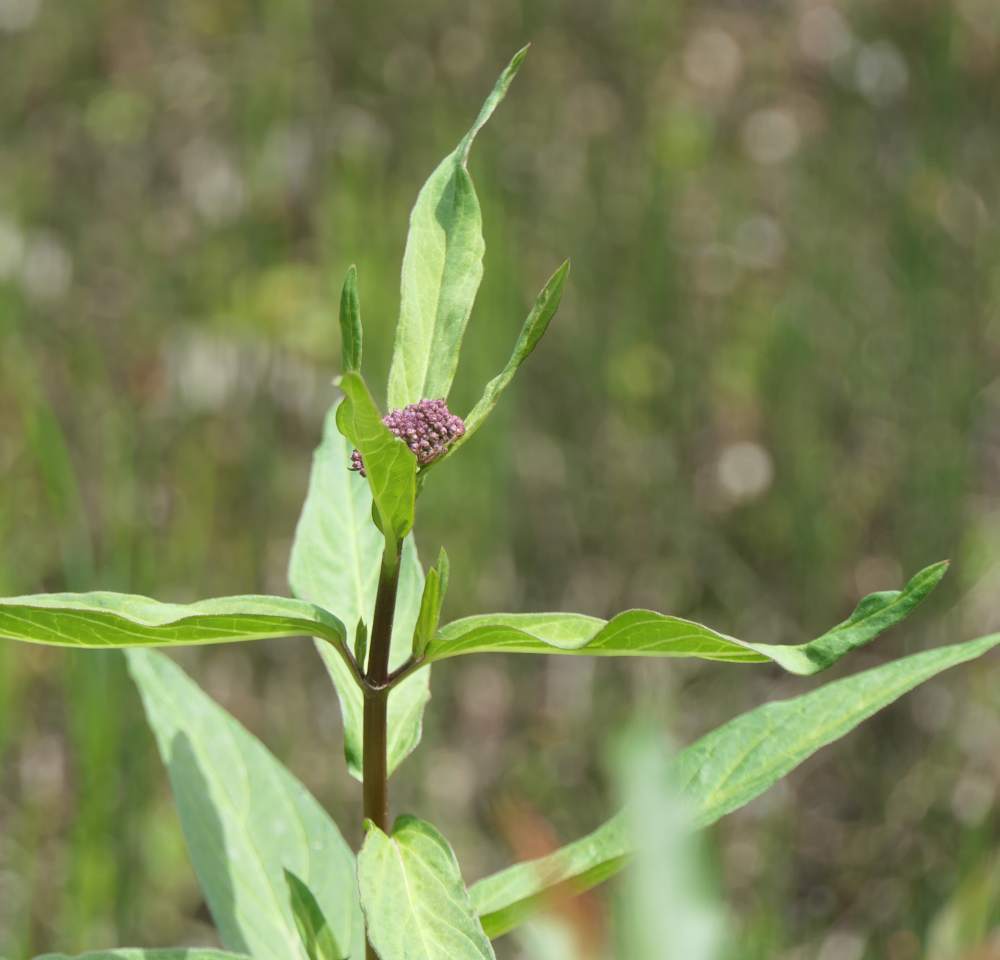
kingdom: Plantae
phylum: Tracheophyta
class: Magnoliopsida
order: Gentianales
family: Apocynaceae
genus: Asclepias
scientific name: Asclepias incarnata
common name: Swamp milkweed
